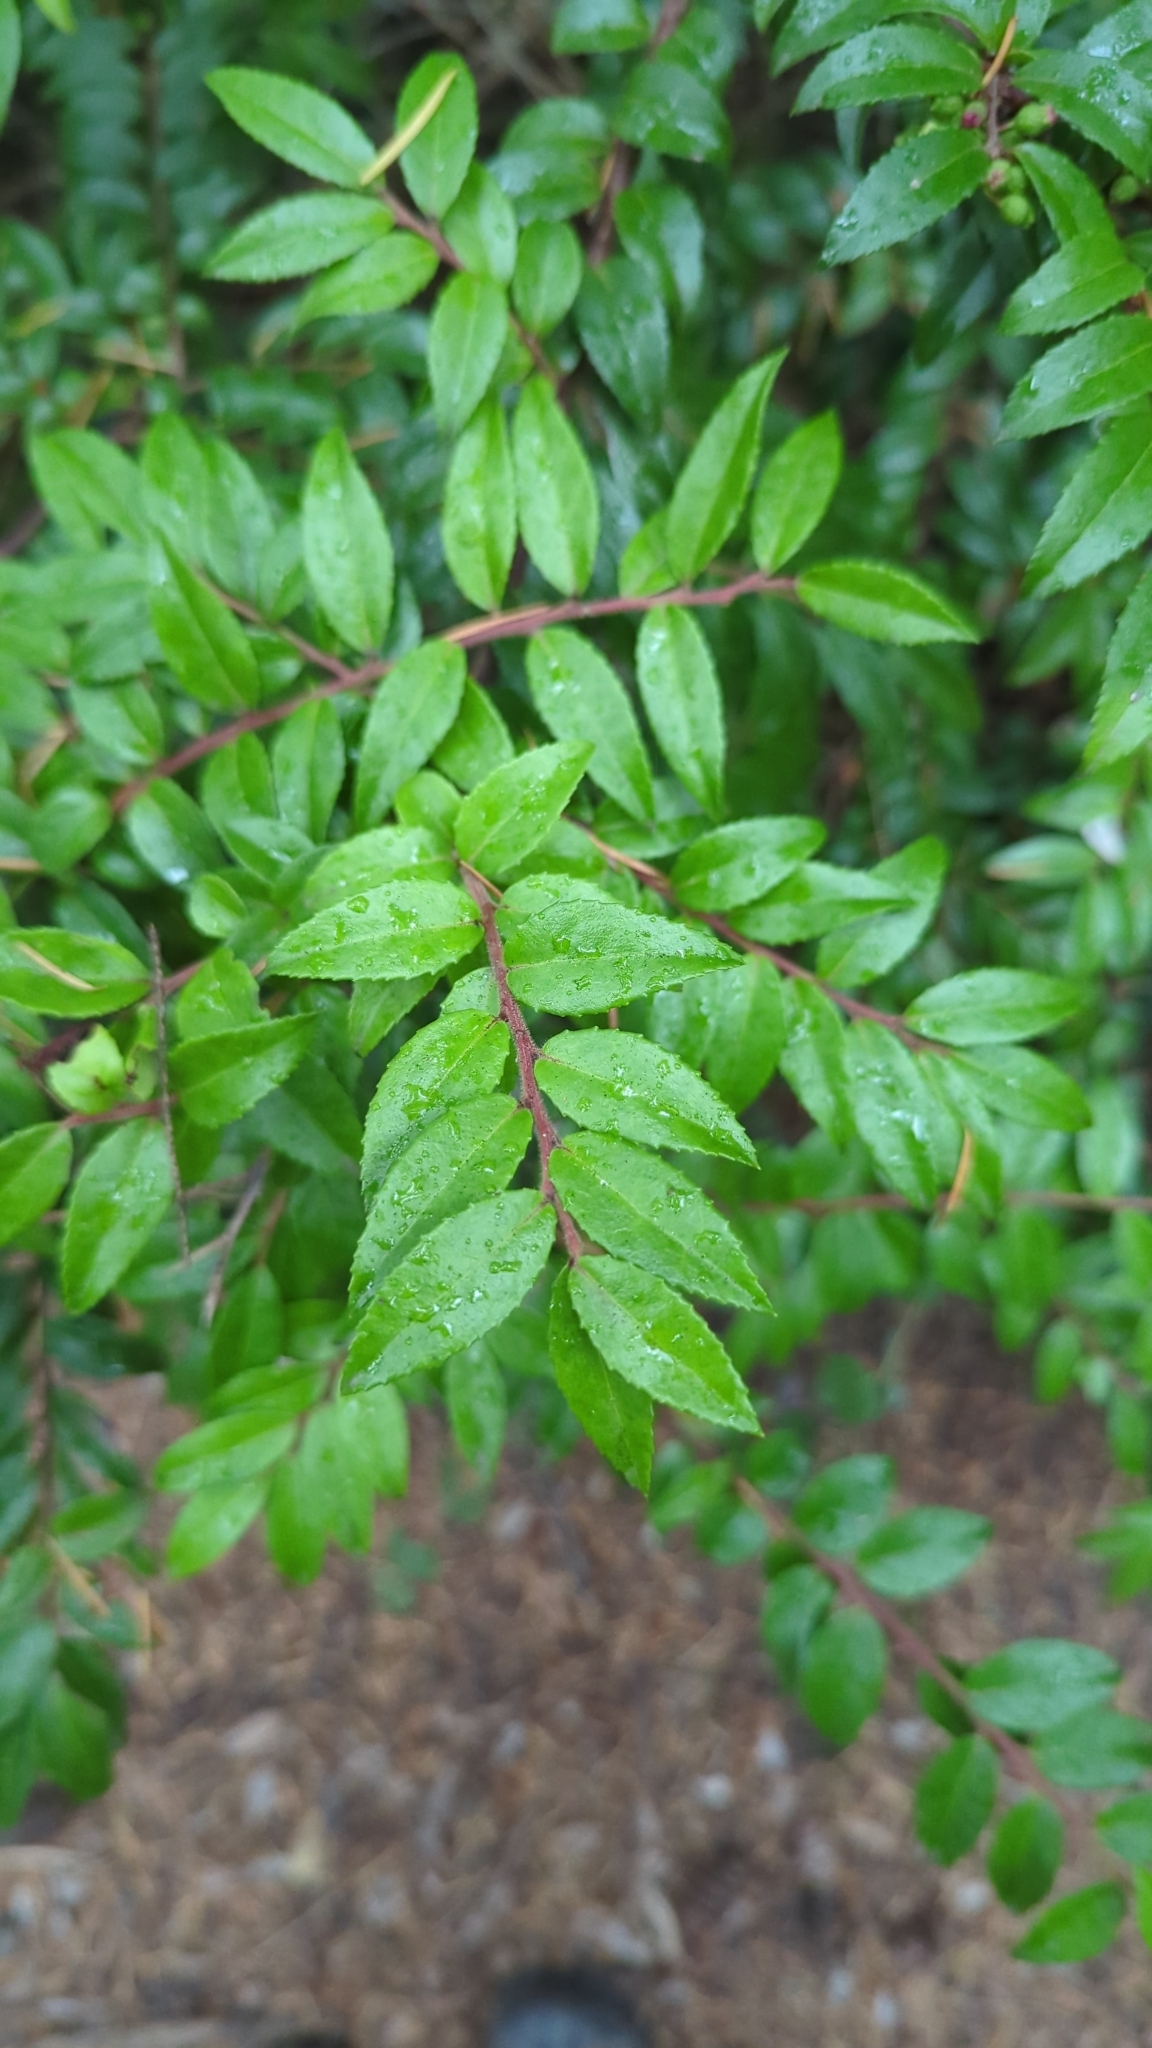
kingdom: Plantae
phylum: Tracheophyta
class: Magnoliopsida
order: Ericales
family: Ericaceae
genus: Vaccinium
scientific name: Vaccinium ovatum
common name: California-huckleberry
